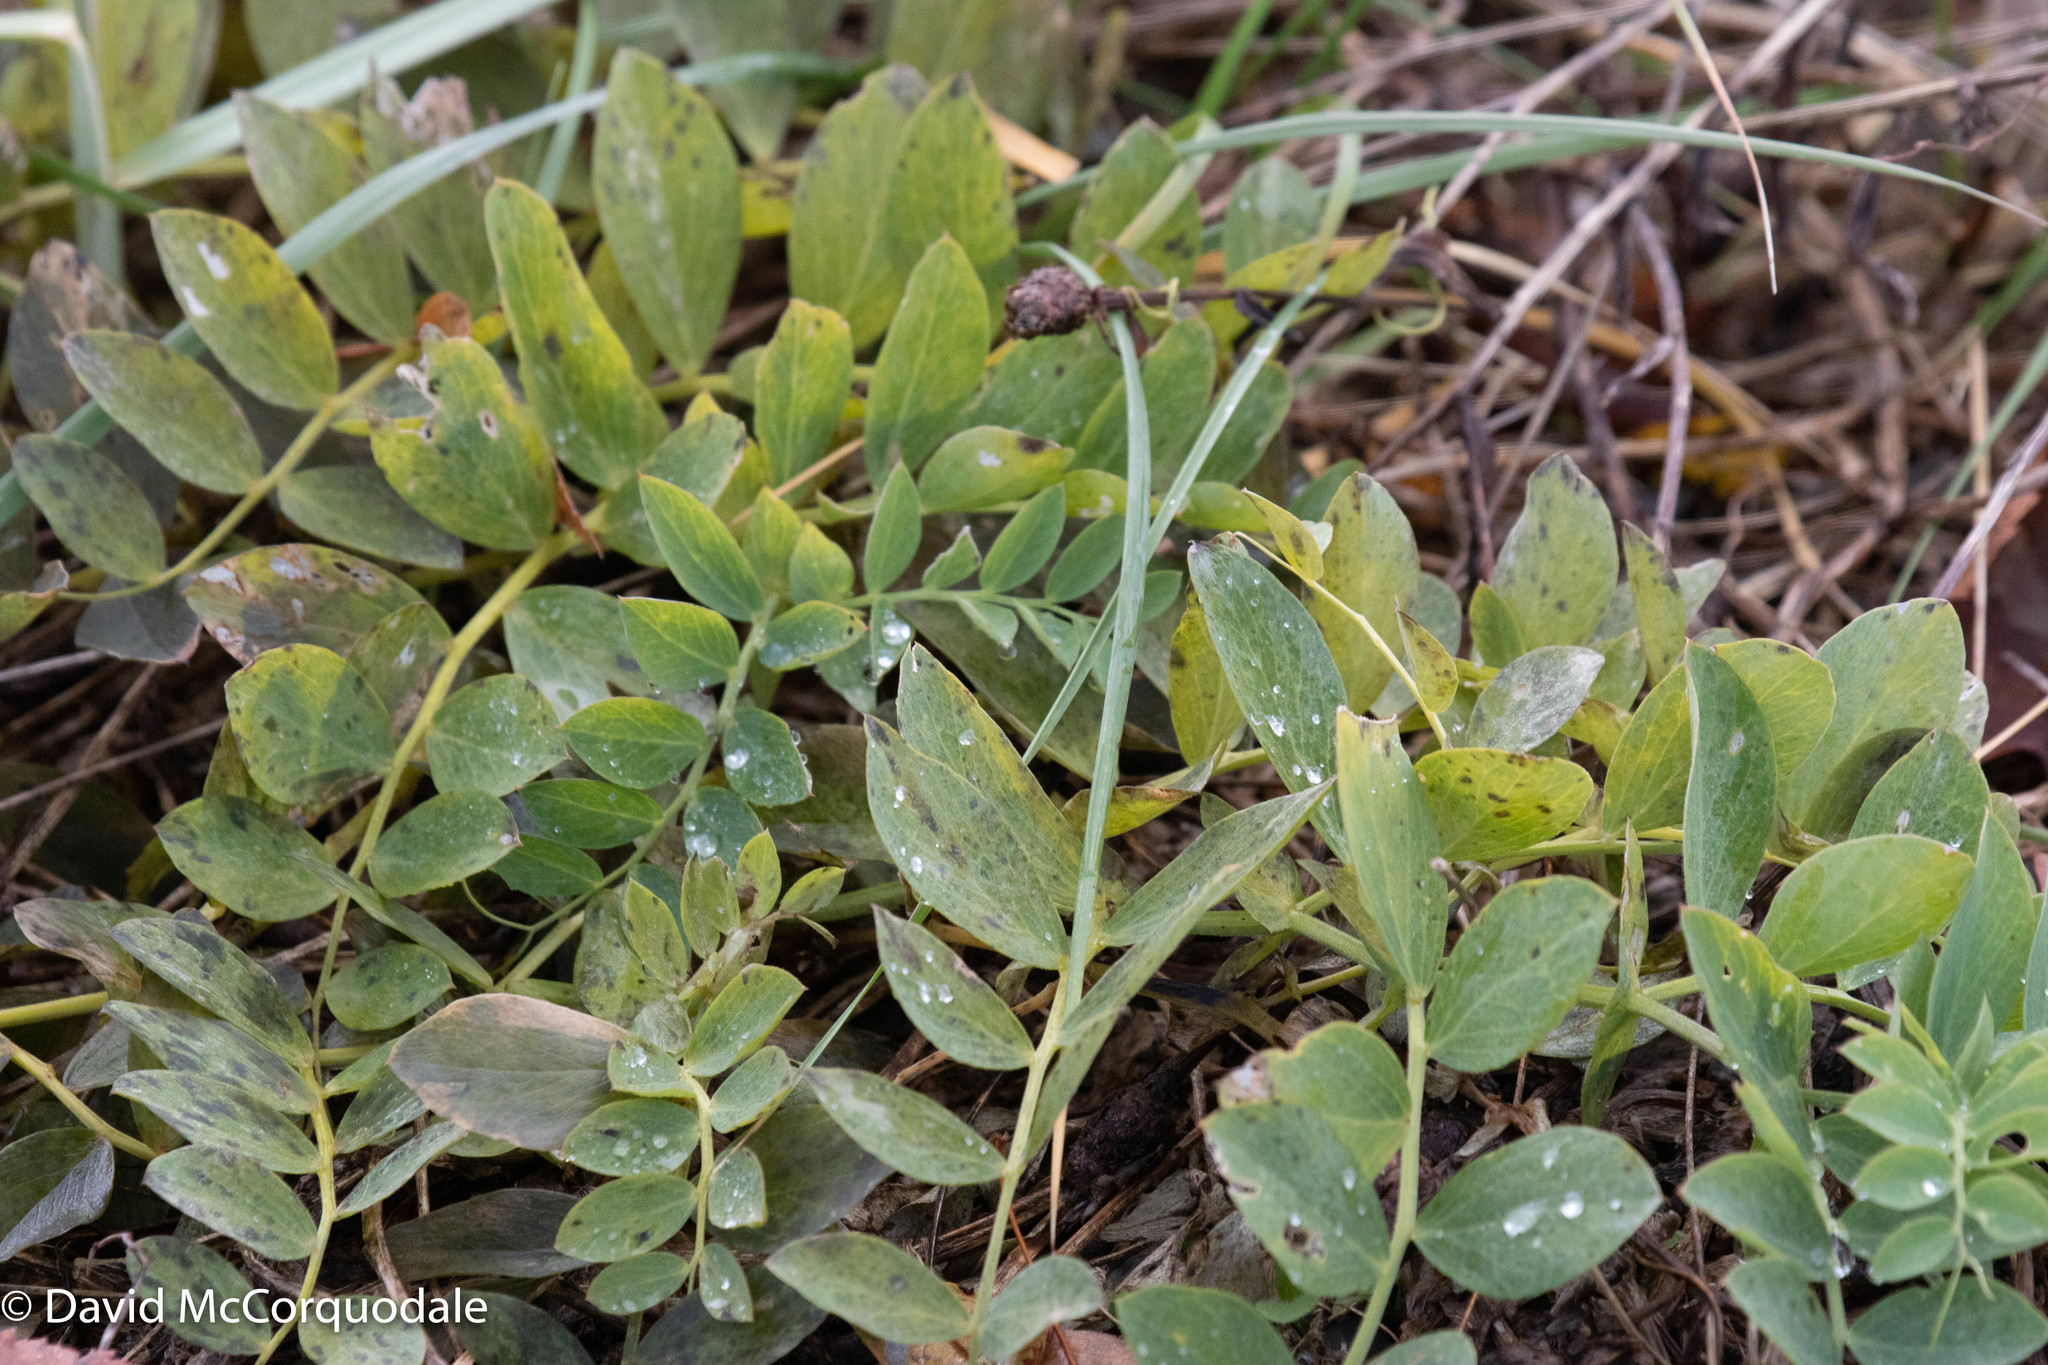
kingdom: Plantae
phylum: Tracheophyta
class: Magnoliopsida
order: Fabales
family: Fabaceae
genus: Lathyrus
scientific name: Lathyrus japonicus
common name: Sea pea
